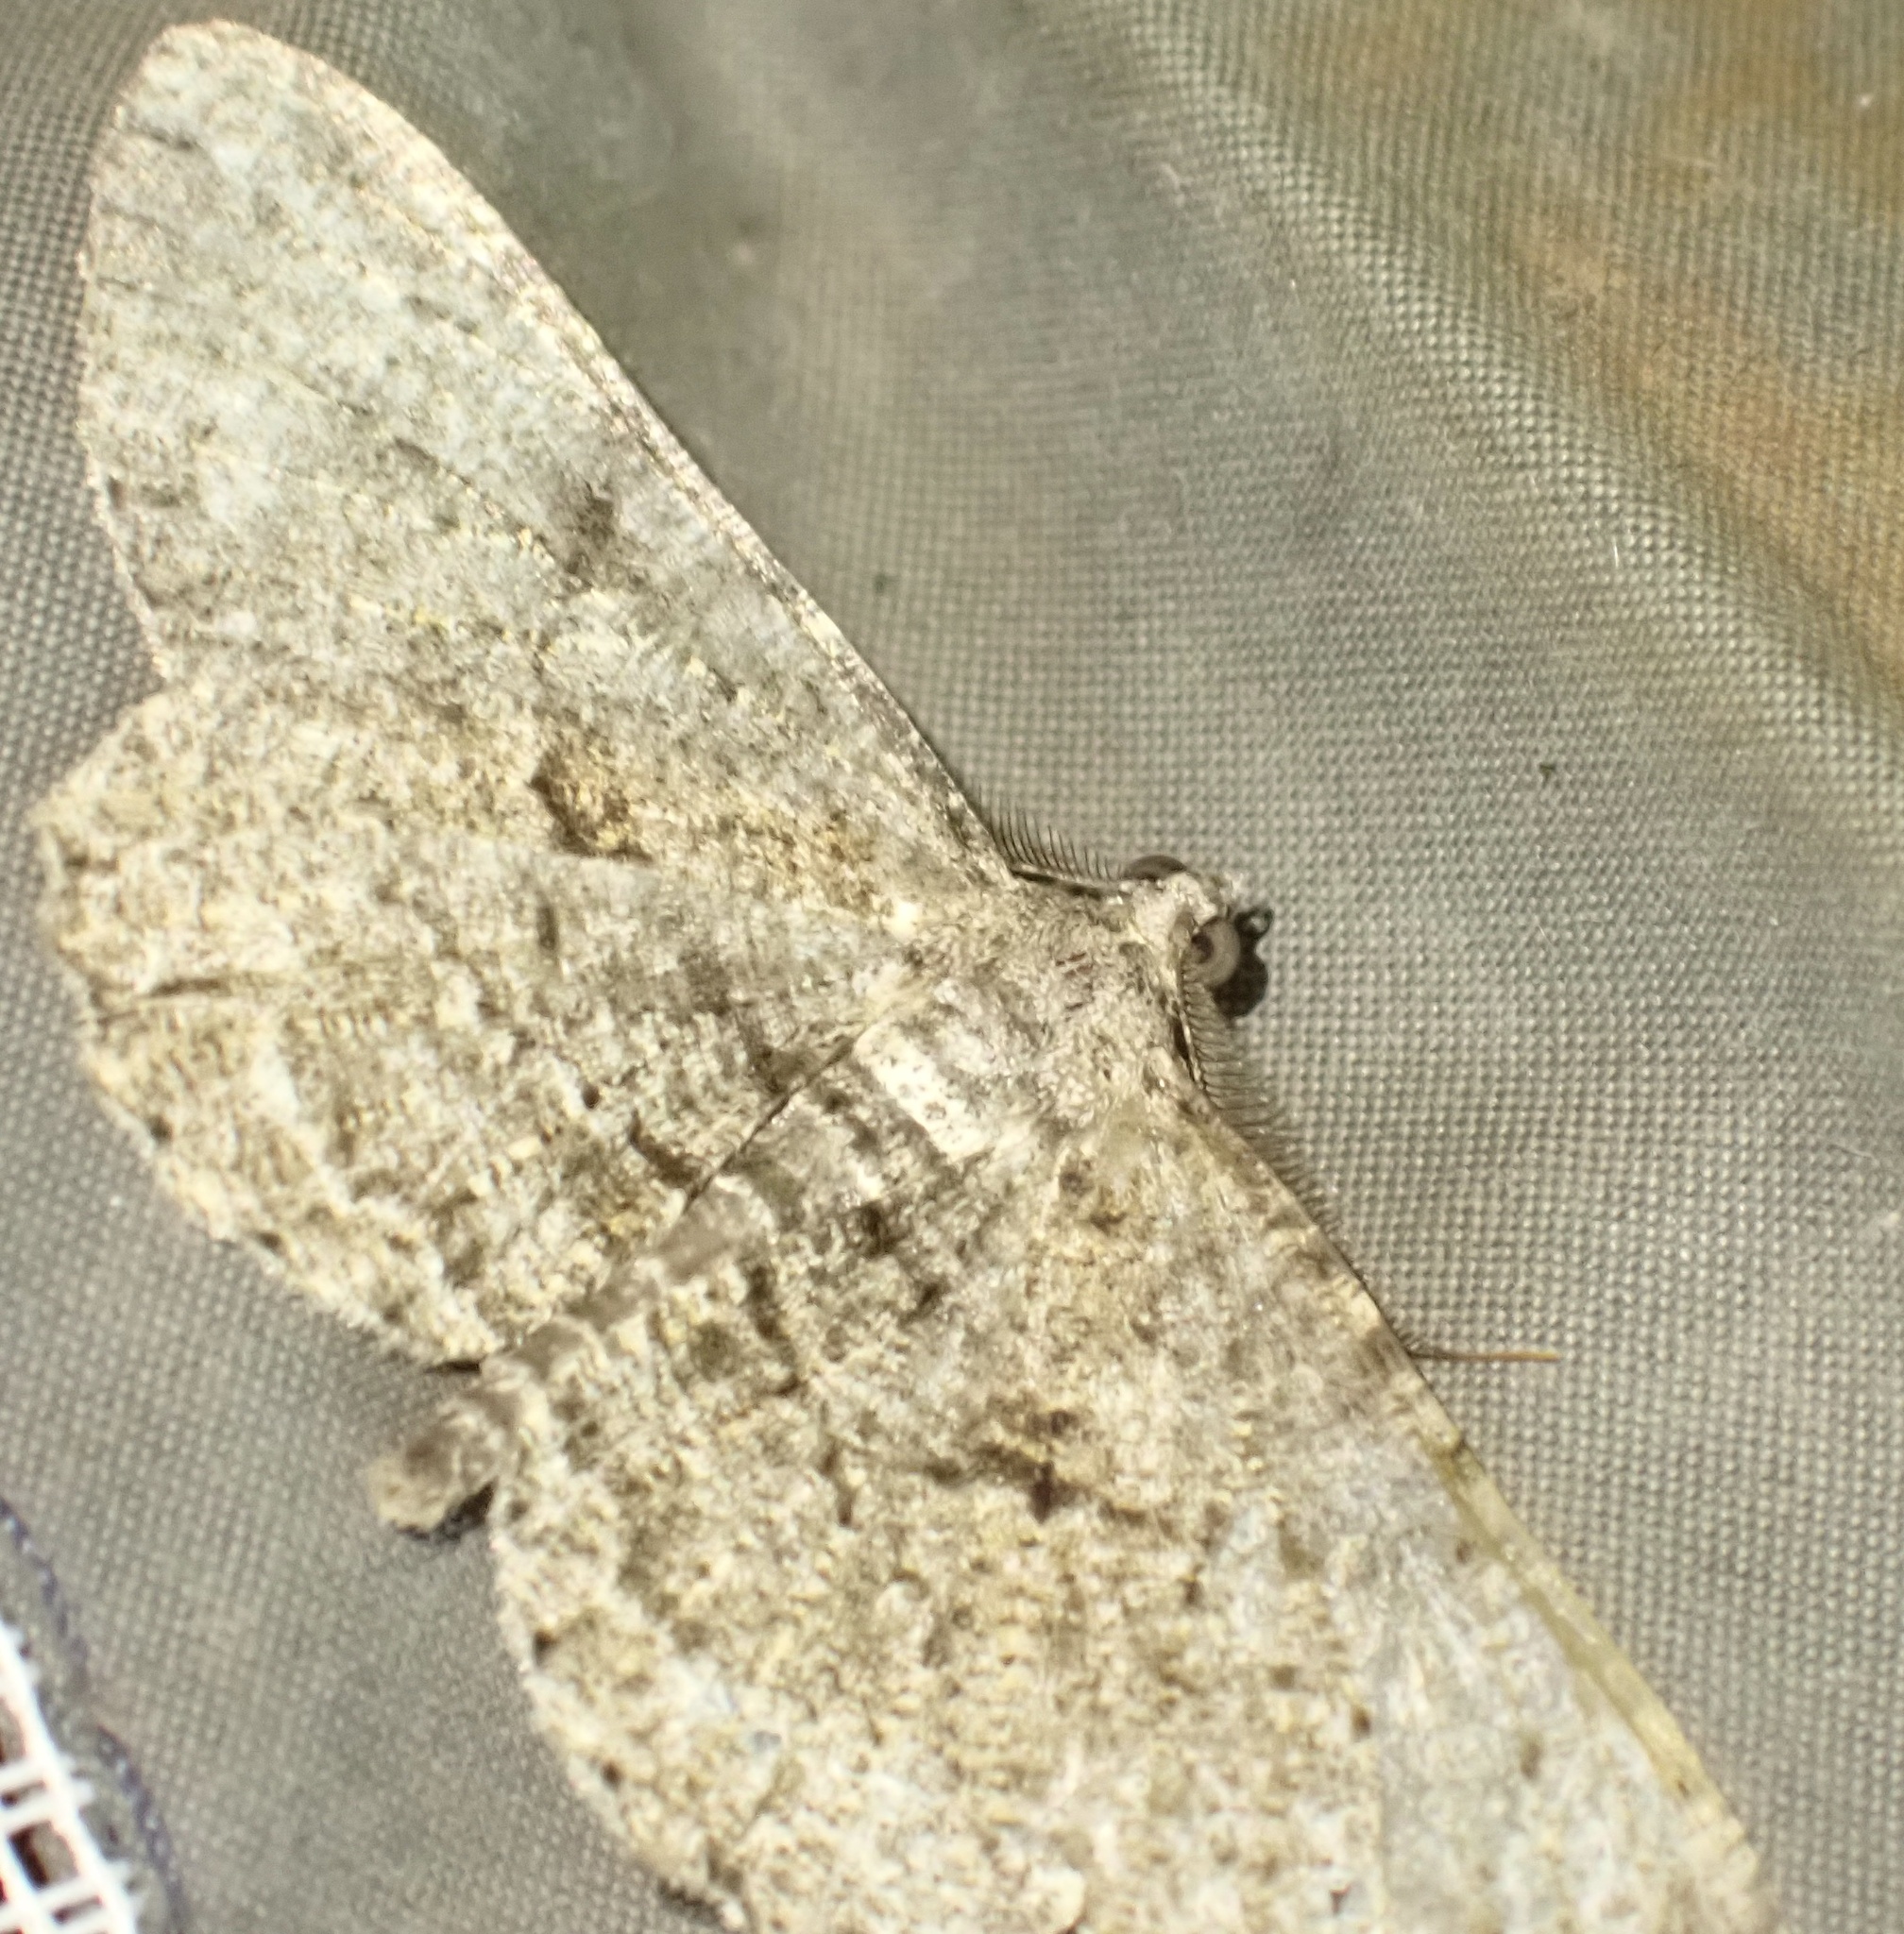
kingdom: Animalia
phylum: Arthropoda
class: Insecta
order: Lepidoptera
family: Geometridae
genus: Peribatodes
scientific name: Peribatodes rhomboidaria
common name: Willow beauty
